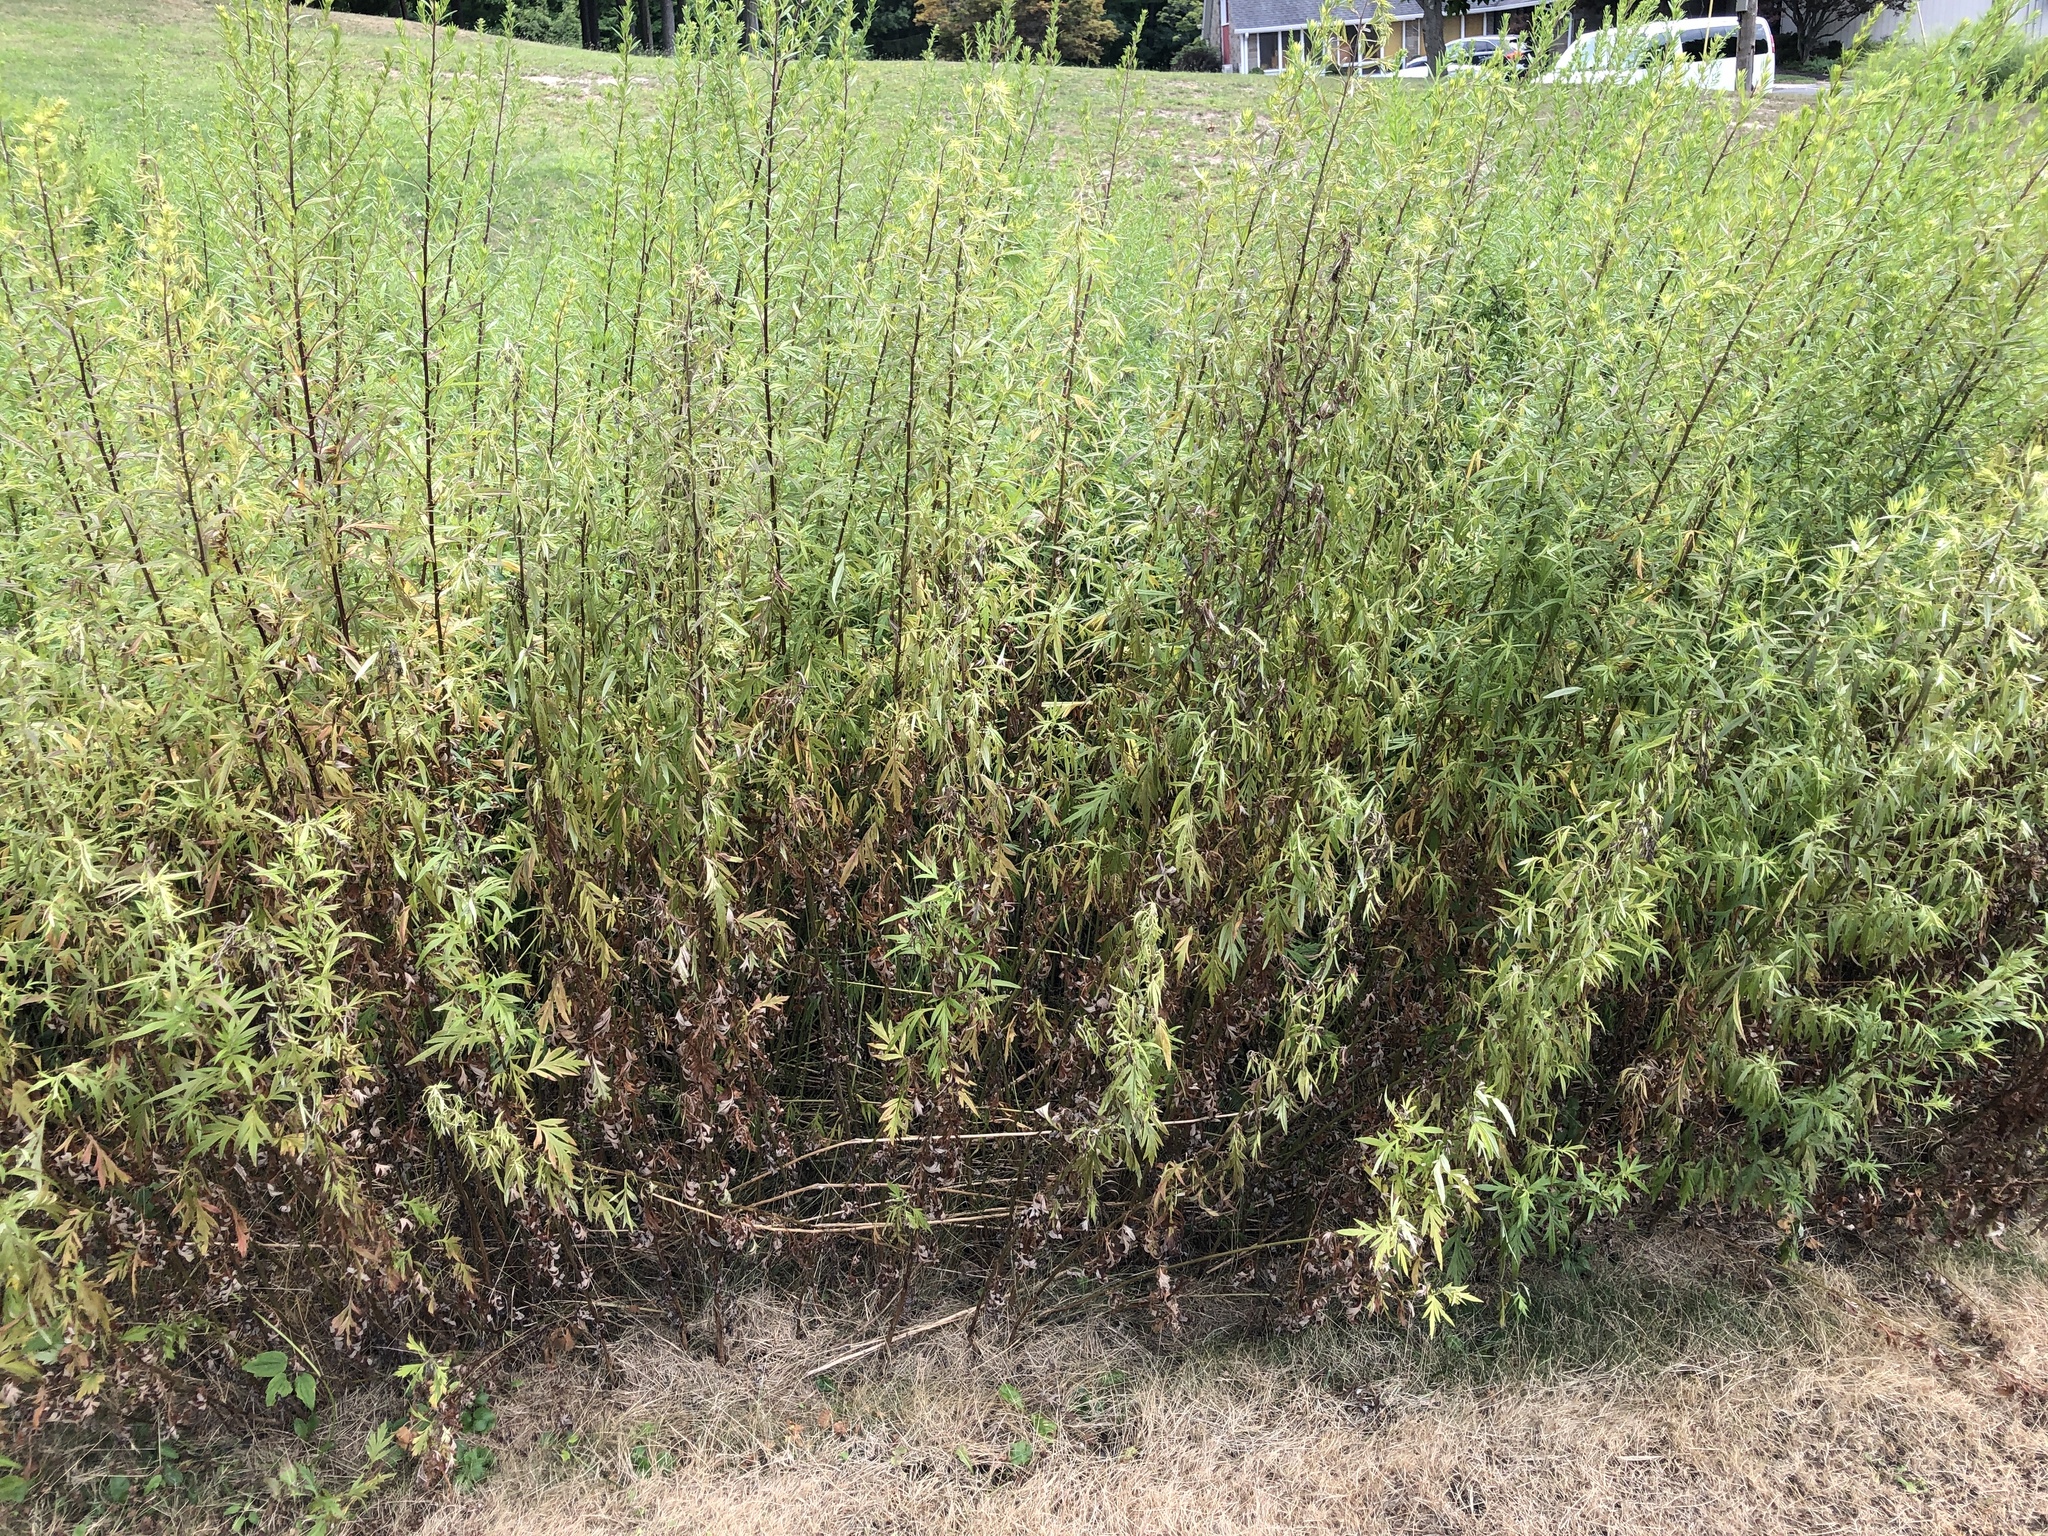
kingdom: Plantae
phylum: Tracheophyta
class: Magnoliopsida
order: Asterales
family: Asteraceae
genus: Artemisia
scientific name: Artemisia vulgaris
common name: Mugwort
